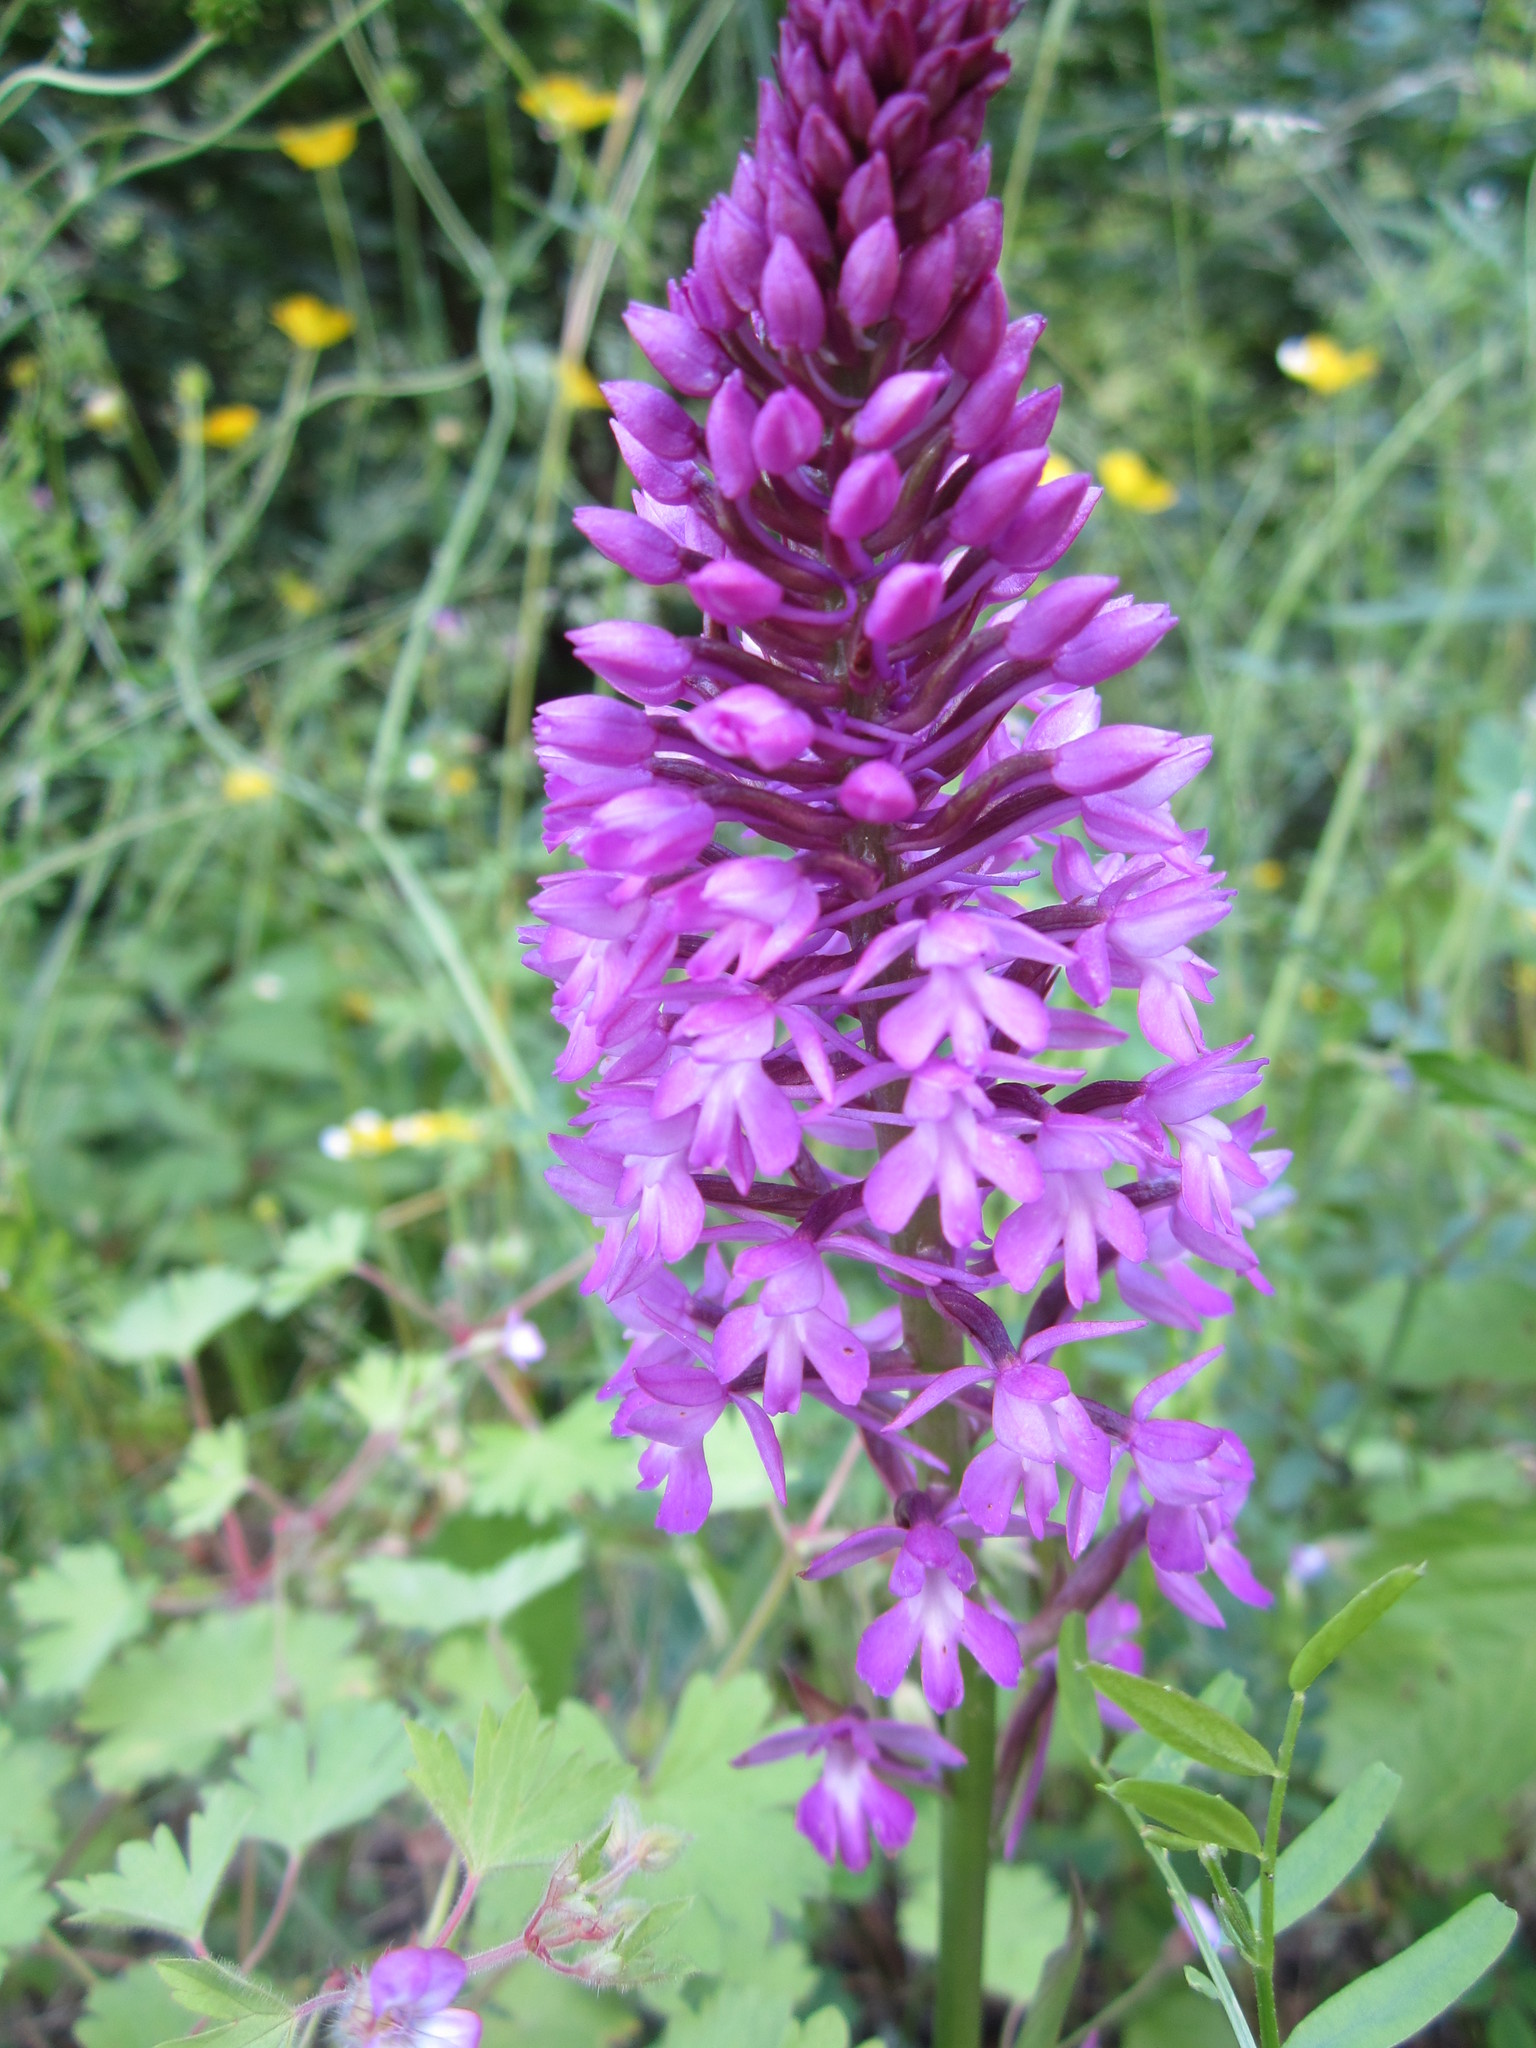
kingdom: Plantae
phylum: Tracheophyta
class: Liliopsida
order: Asparagales
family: Orchidaceae
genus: Anacamptis
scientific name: Anacamptis pyramidalis
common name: Pyramidal orchid
